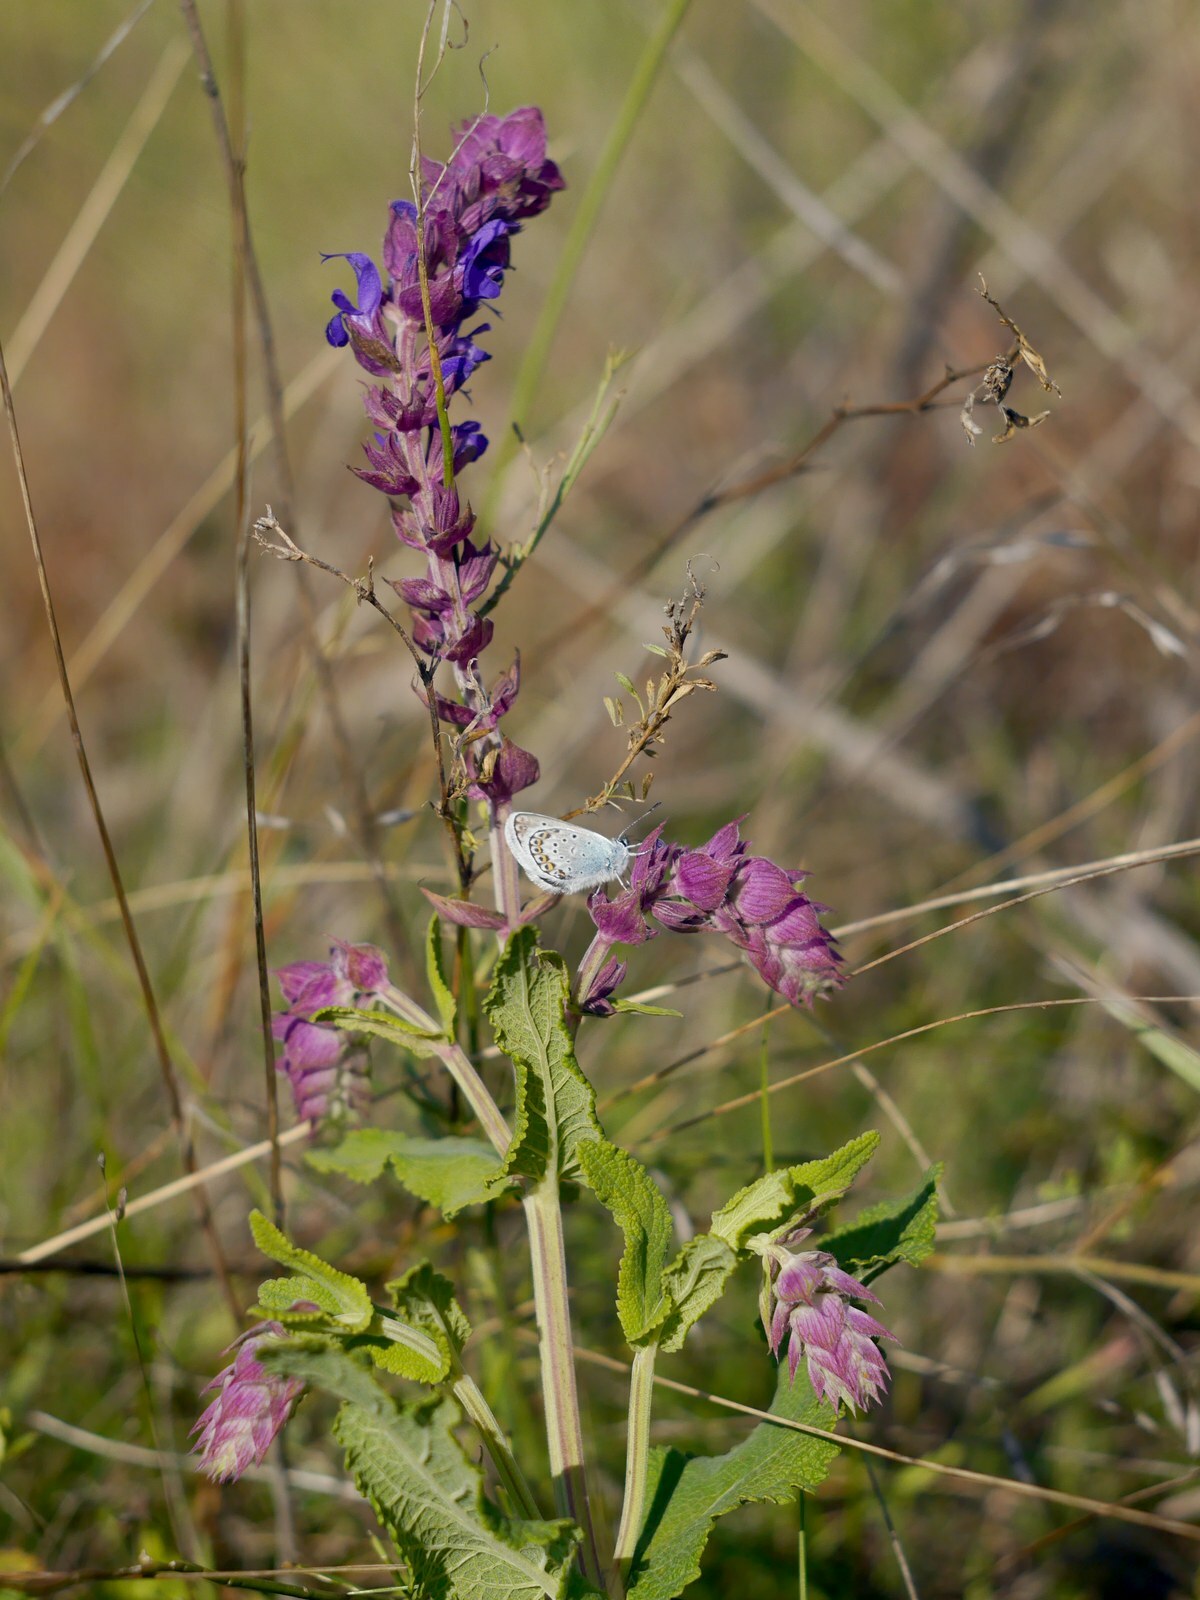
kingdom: Plantae
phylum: Tracheophyta
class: Magnoliopsida
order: Lamiales
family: Lamiaceae
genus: Salvia
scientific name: Salvia nemorosa
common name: Balkan clary
